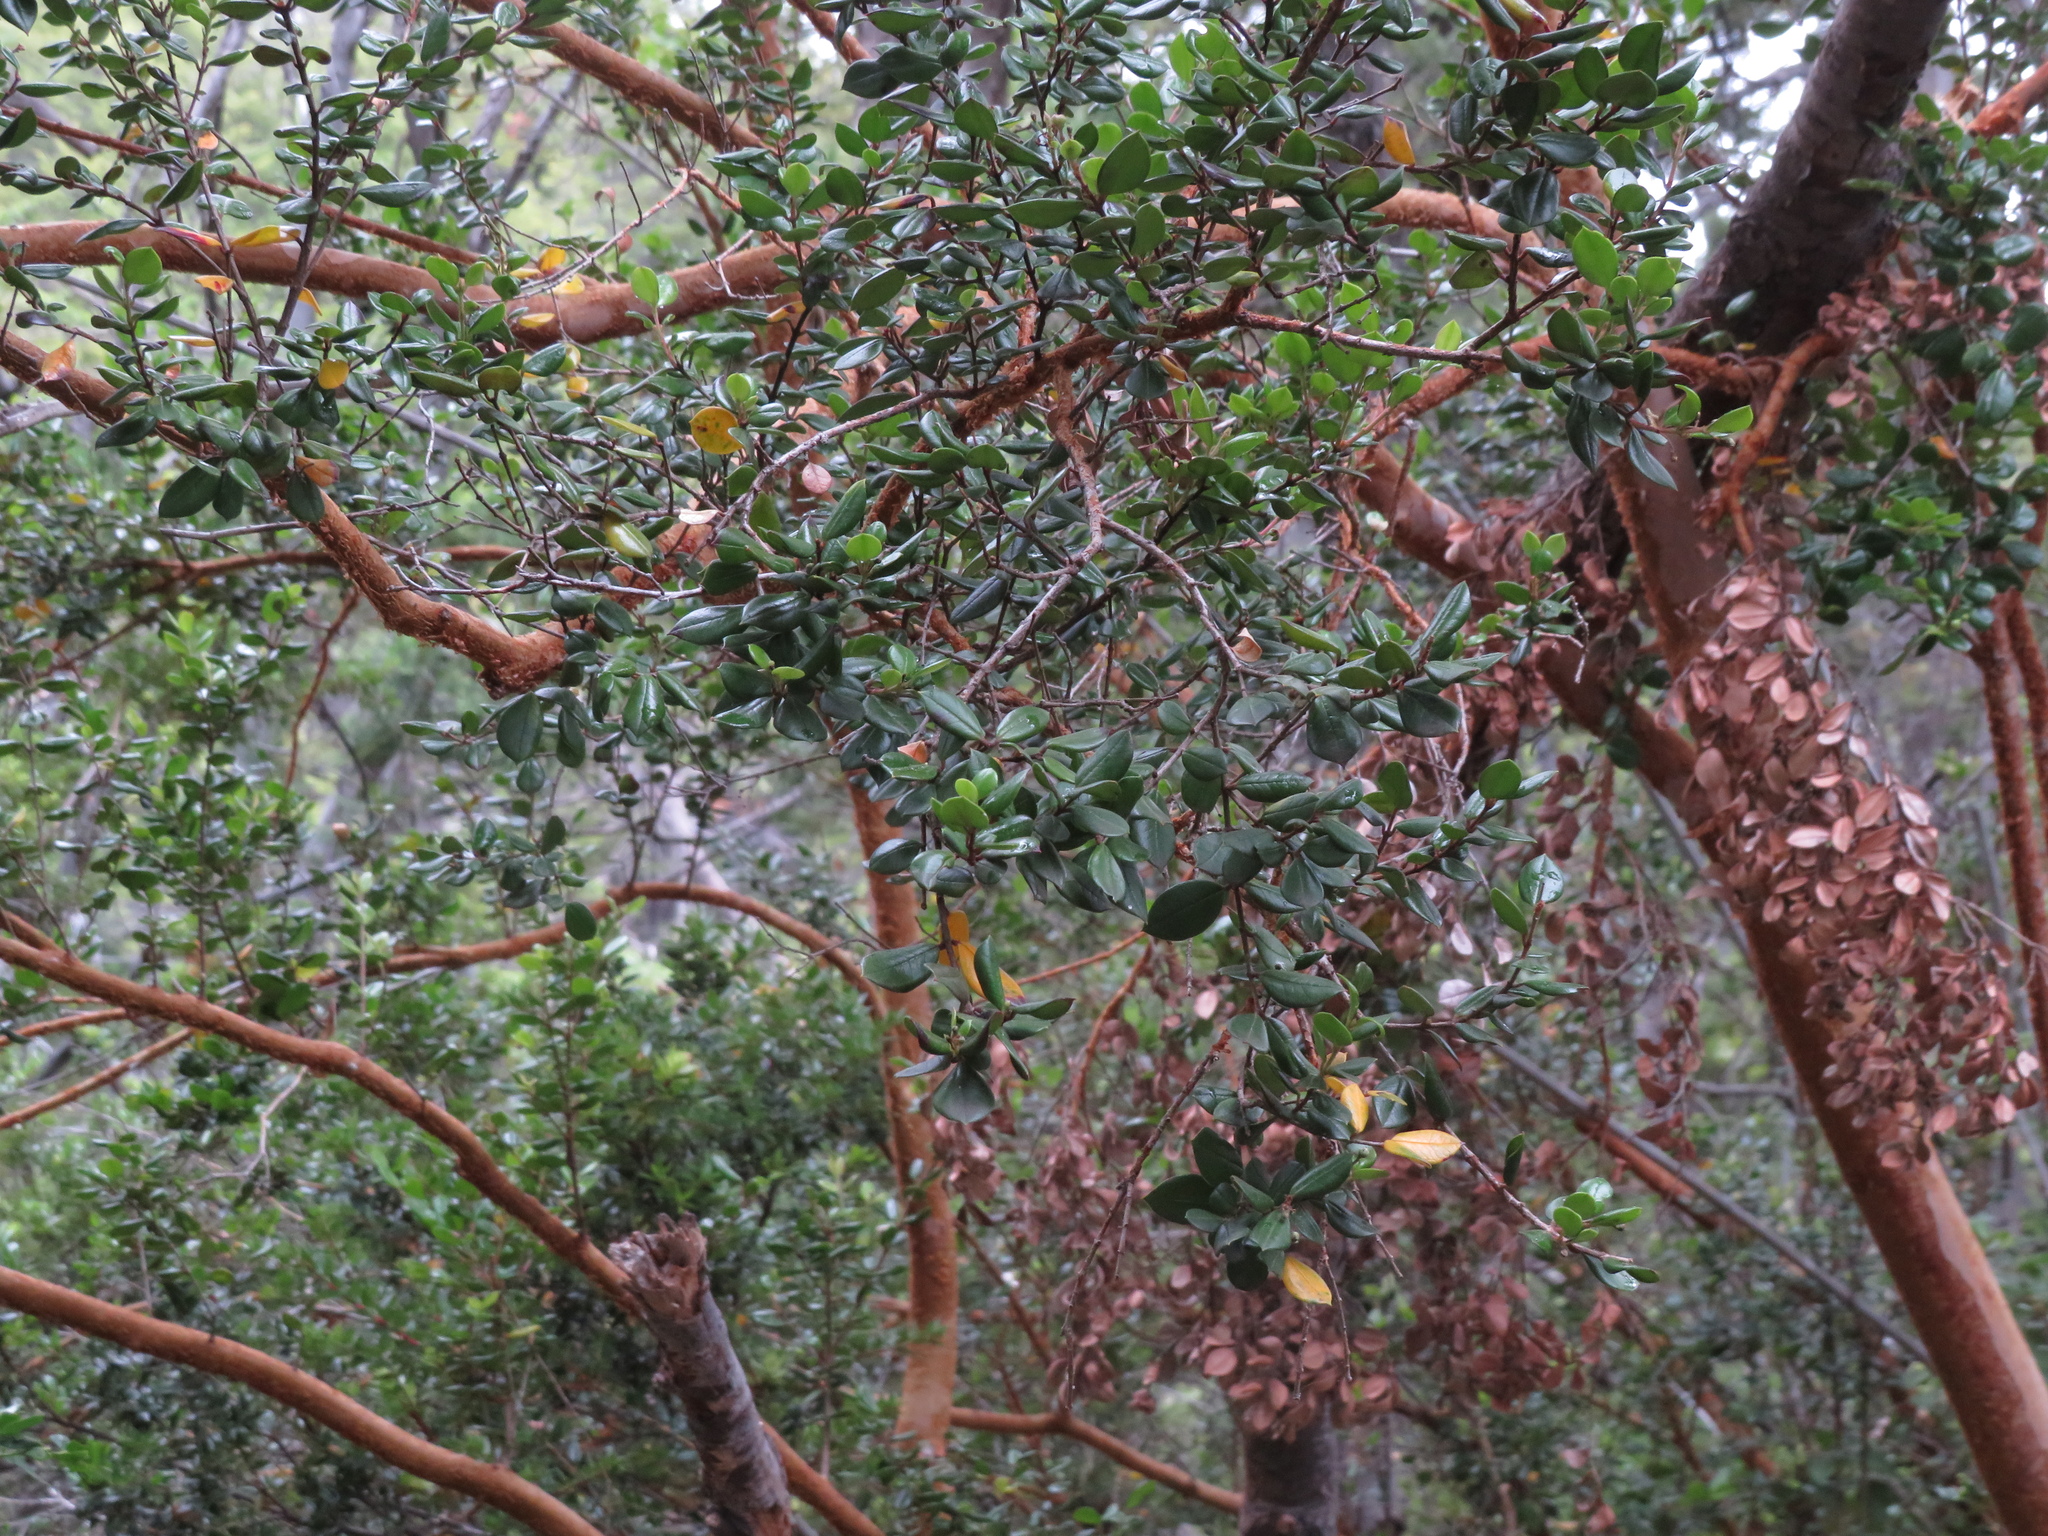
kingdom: Plantae
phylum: Tracheophyta
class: Magnoliopsida
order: Myrtales
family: Myrtaceae
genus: Luma
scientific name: Luma apiculata
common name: Chilean myrtle
